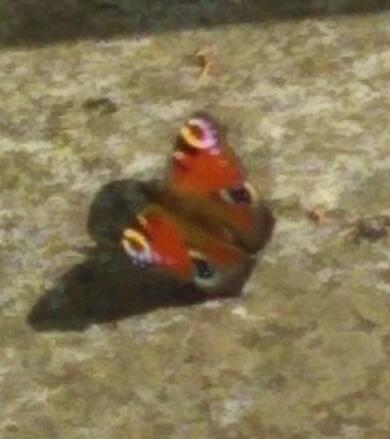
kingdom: Animalia
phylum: Arthropoda
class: Insecta
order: Lepidoptera
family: Nymphalidae
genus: Aglais
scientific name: Aglais io
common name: Peacock
